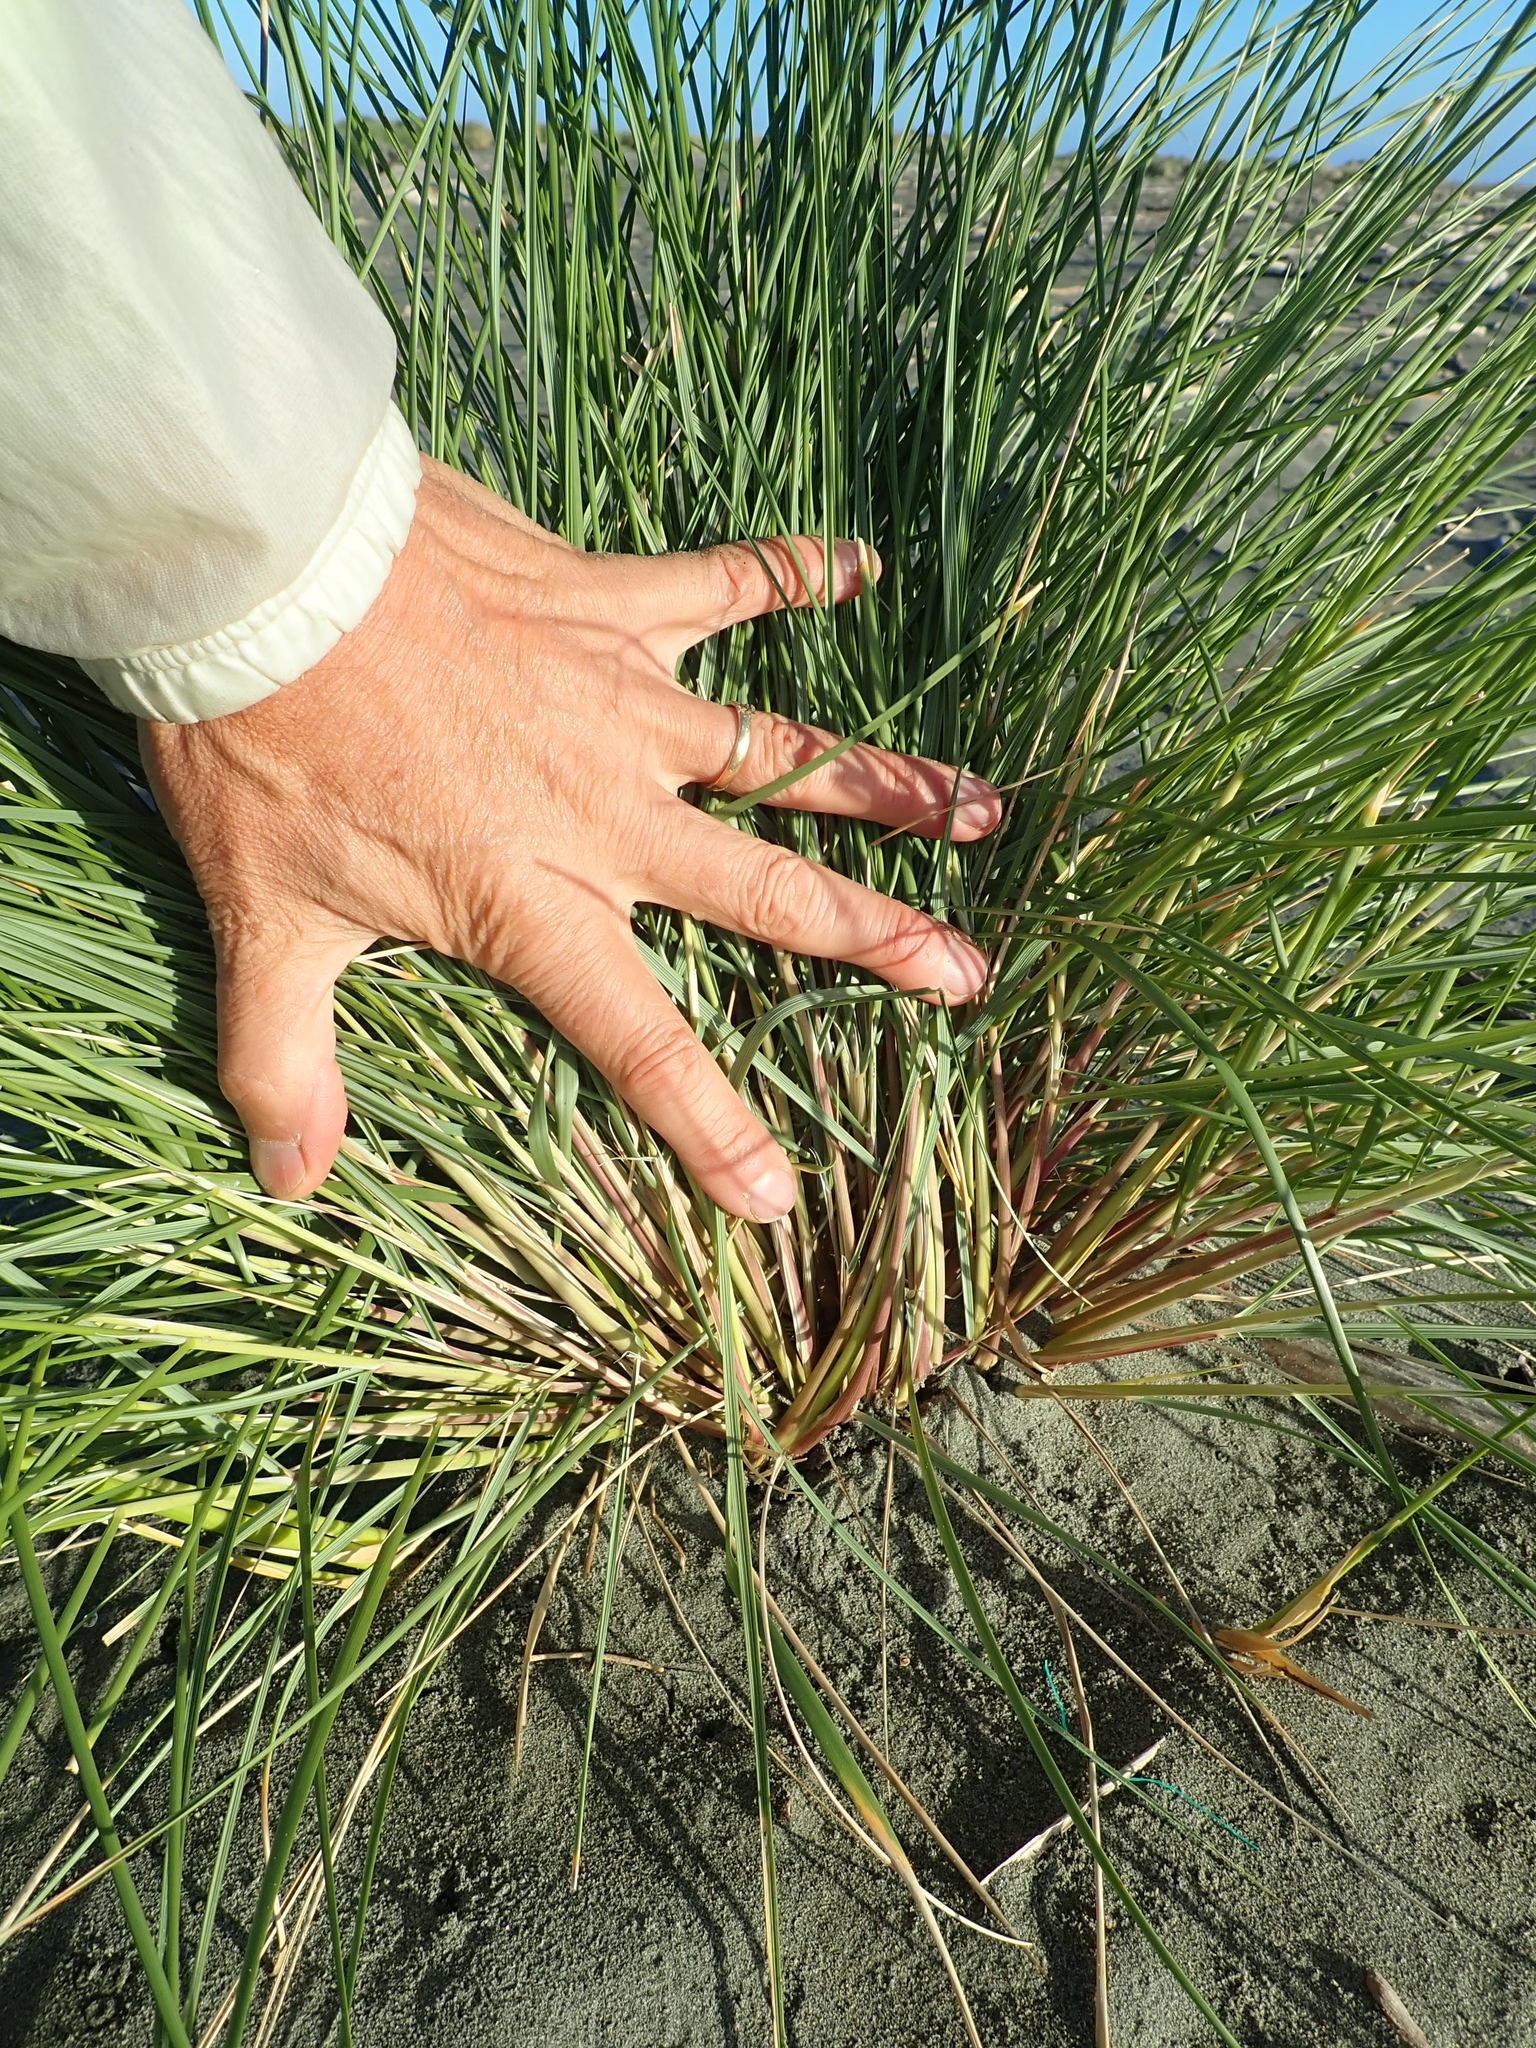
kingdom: Plantae
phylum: Tracheophyta
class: Liliopsida
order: Poales
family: Poaceae
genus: Calamagrostis
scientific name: Calamagrostis arenaria
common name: European beachgrass
